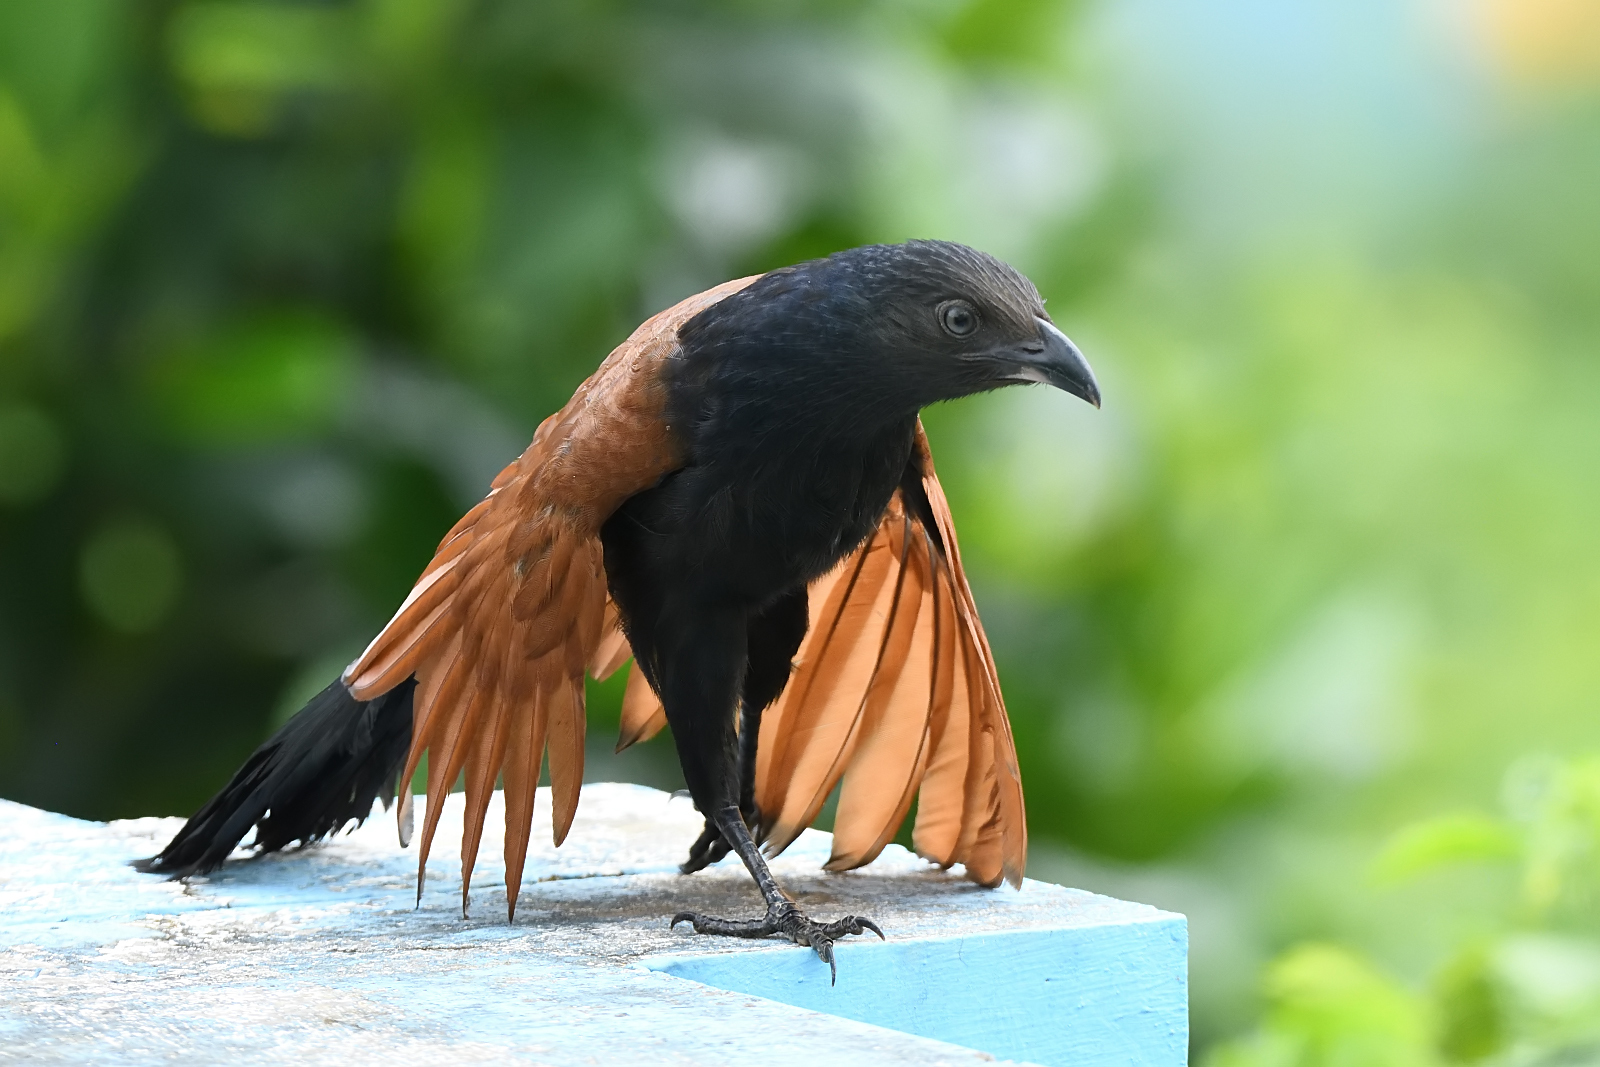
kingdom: Animalia
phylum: Chordata
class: Aves
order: Cuculiformes
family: Cuculidae
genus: Centropus
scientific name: Centropus sinensis
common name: Greater coucal
